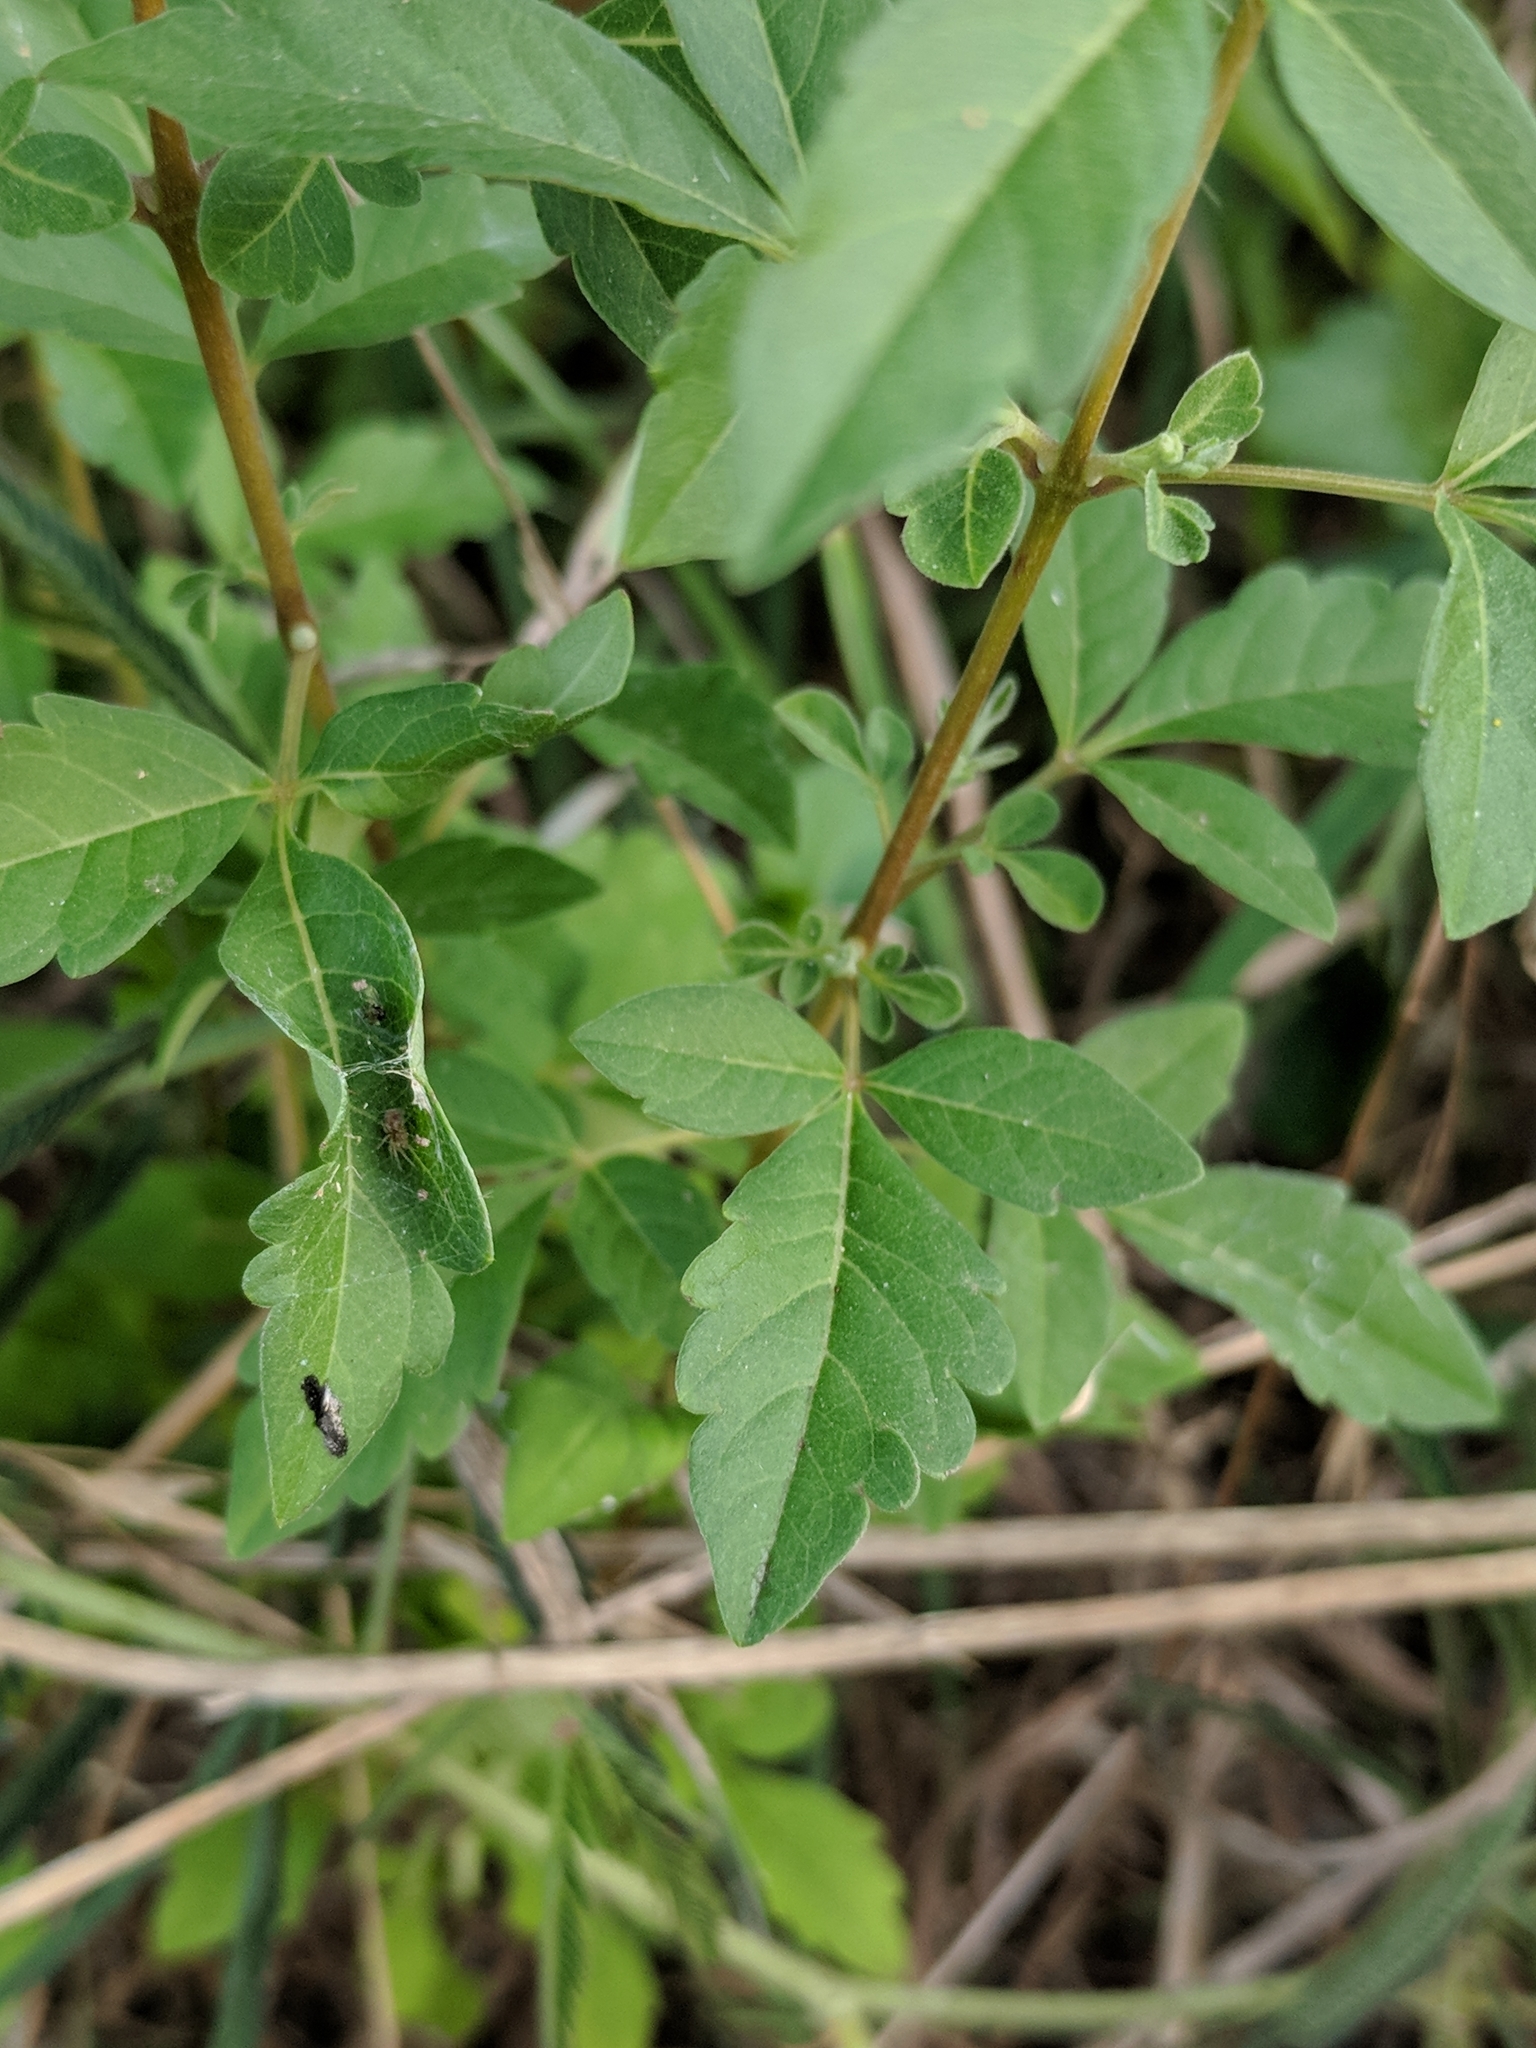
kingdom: Plantae
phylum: Tracheophyta
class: Magnoliopsida
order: Lamiales
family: Lamiaceae
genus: Vitex
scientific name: Vitex negundo
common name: Chinese chastetree
